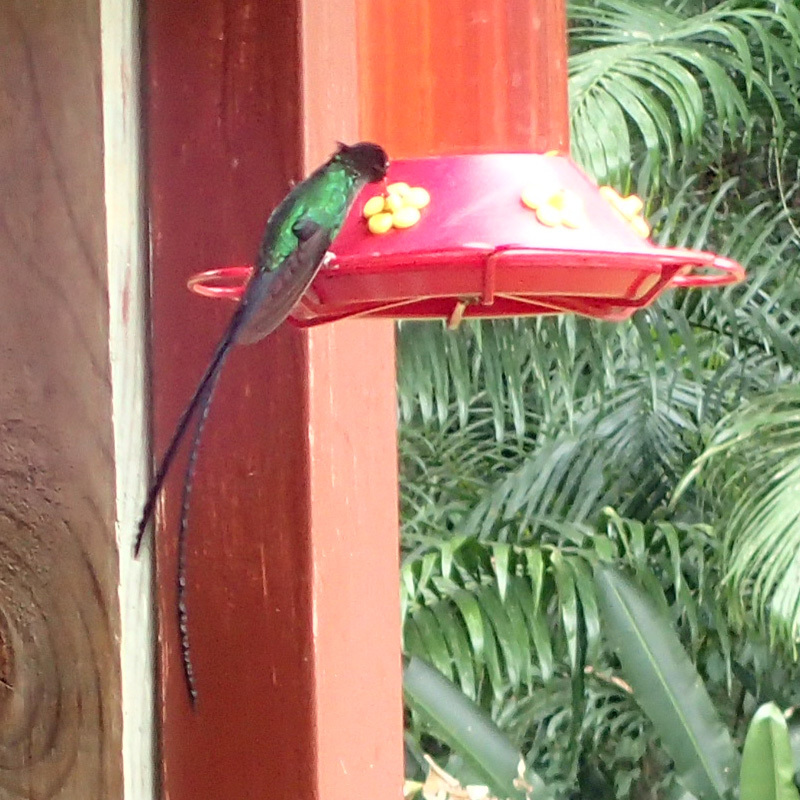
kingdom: Animalia
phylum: Chordata
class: Aves
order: Apodiformes
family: Trochilidae
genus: Trochilus
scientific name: Trochilus polytmus
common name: Red-billed streamertail
